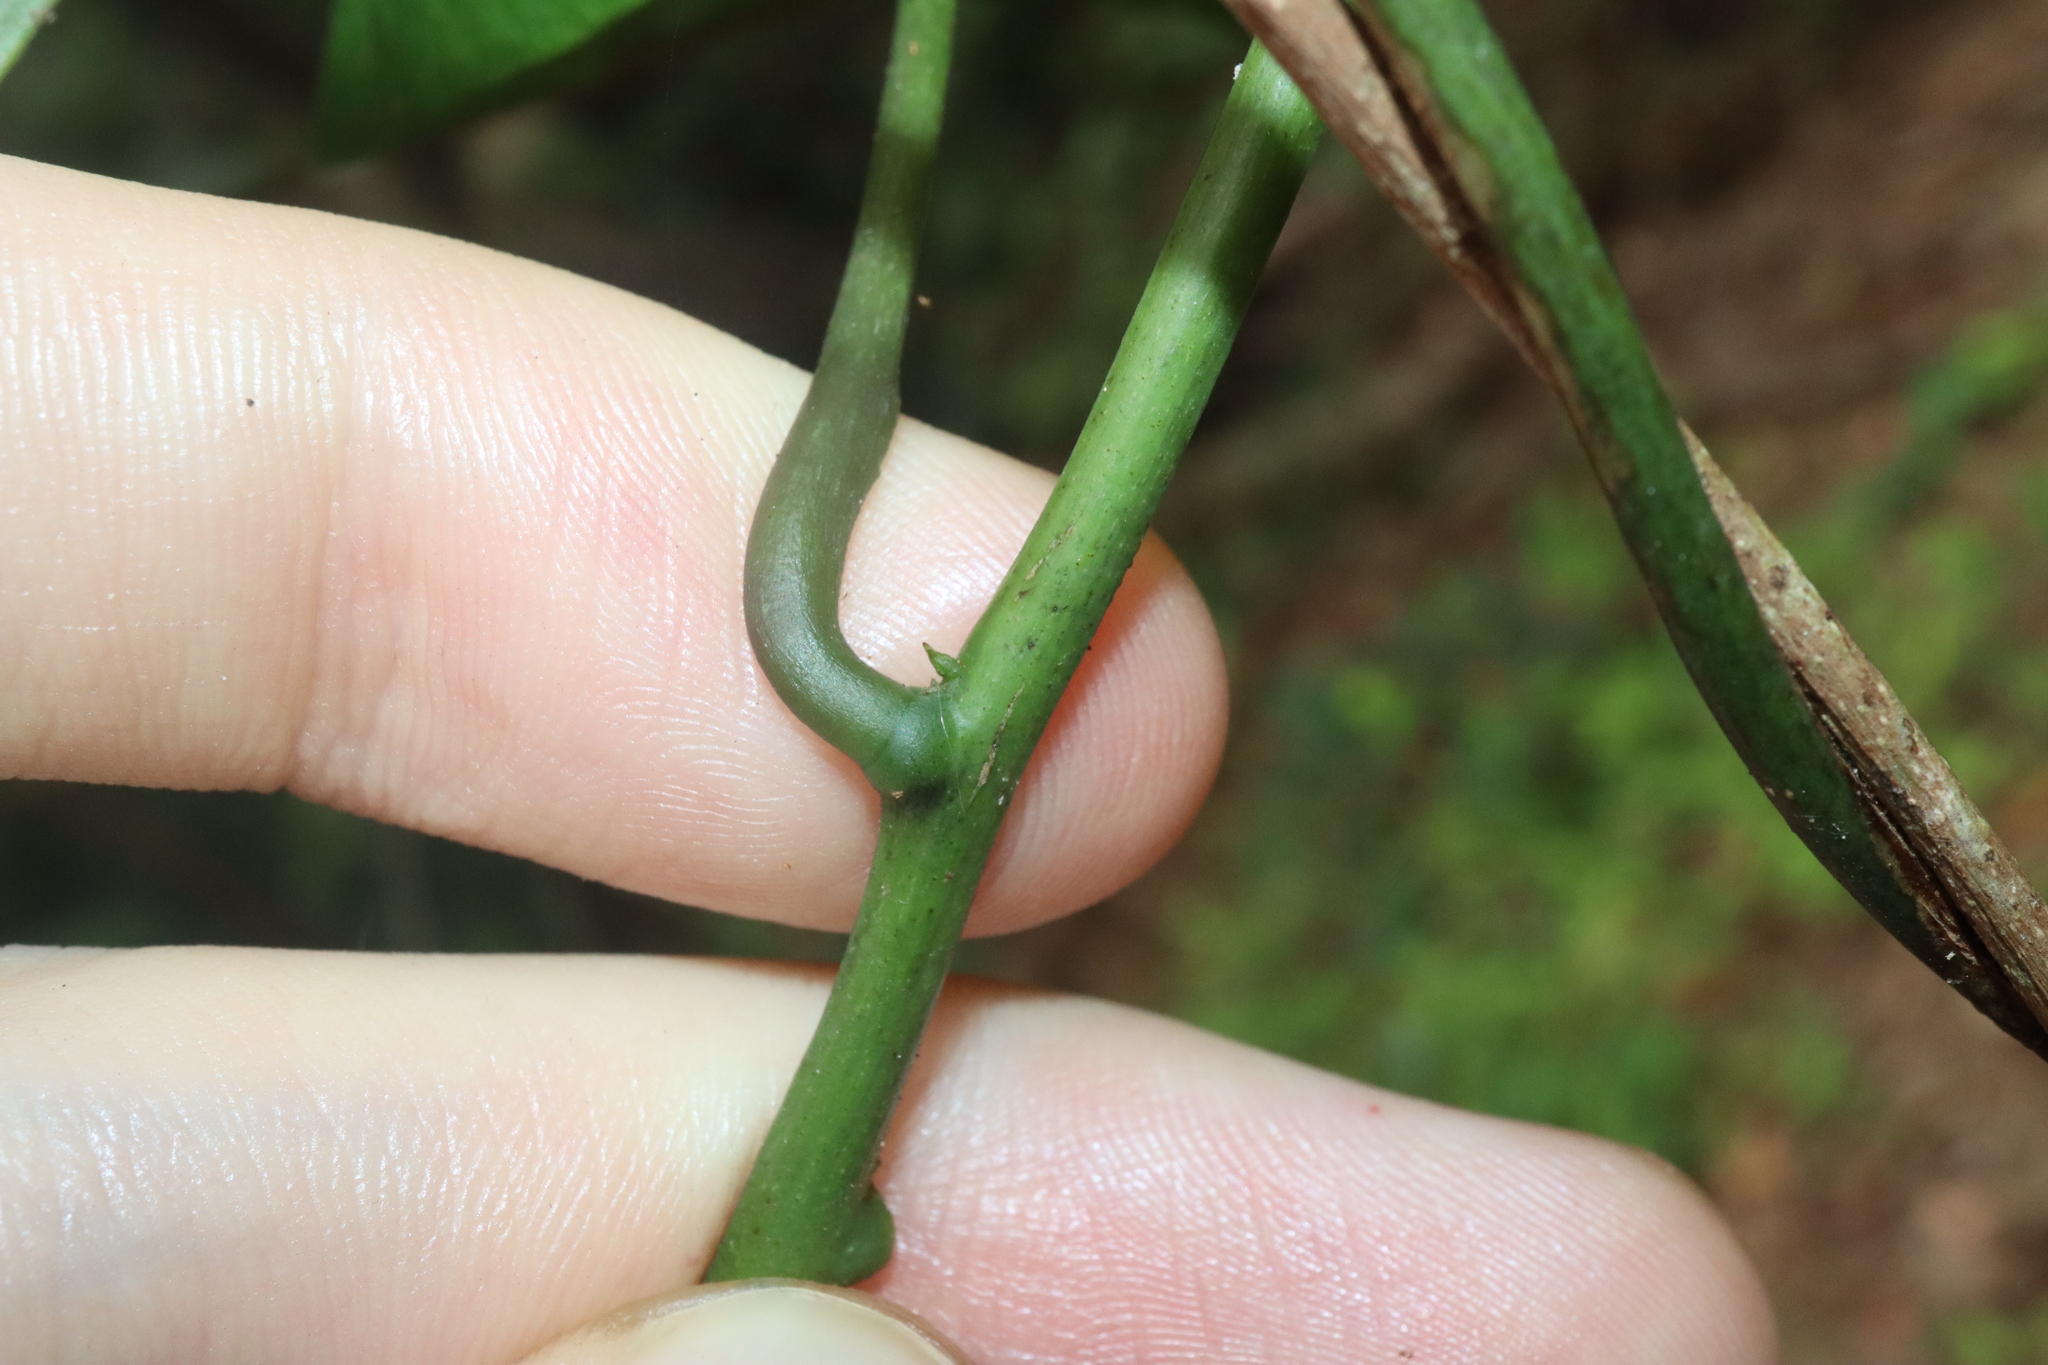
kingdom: Plantae
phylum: Tracheophyta
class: Magnoliopsida
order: Ranunculales
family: Menispermaceae
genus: Stephania
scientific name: Stephania japonica
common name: Snake vine
